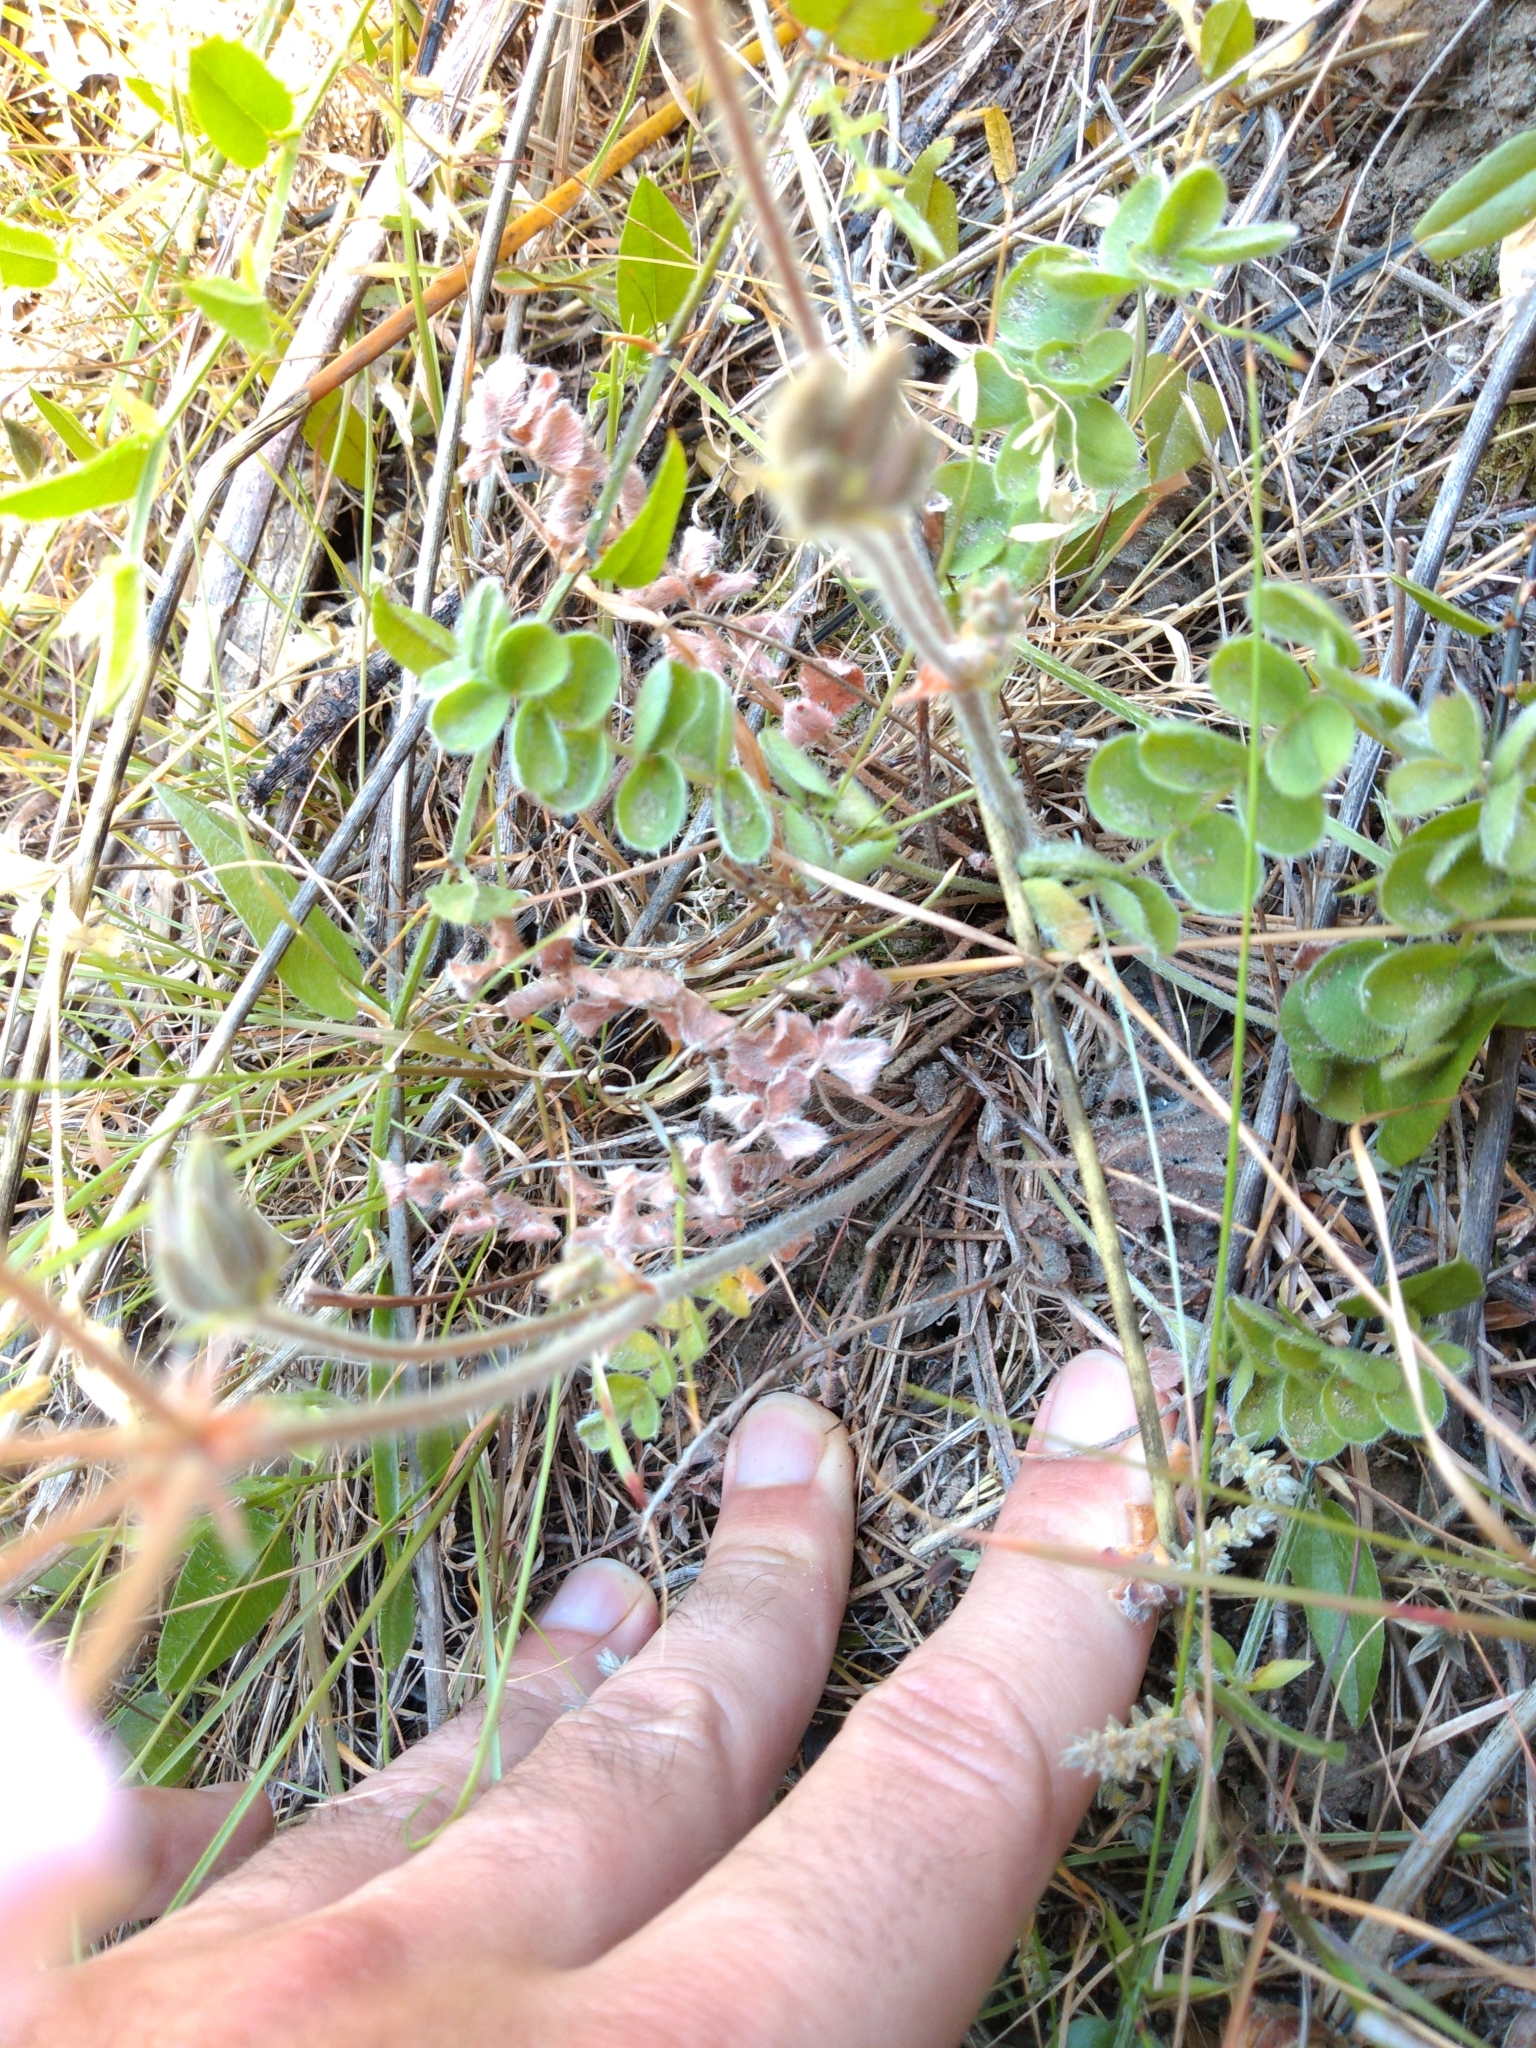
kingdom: Plantae
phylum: Tracheophyta
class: Magnoliopsida
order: Geraniales
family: Geraniaceae
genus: Pelargonium
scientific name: Pelargonium pinnatum
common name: Pinnated pelargonium
